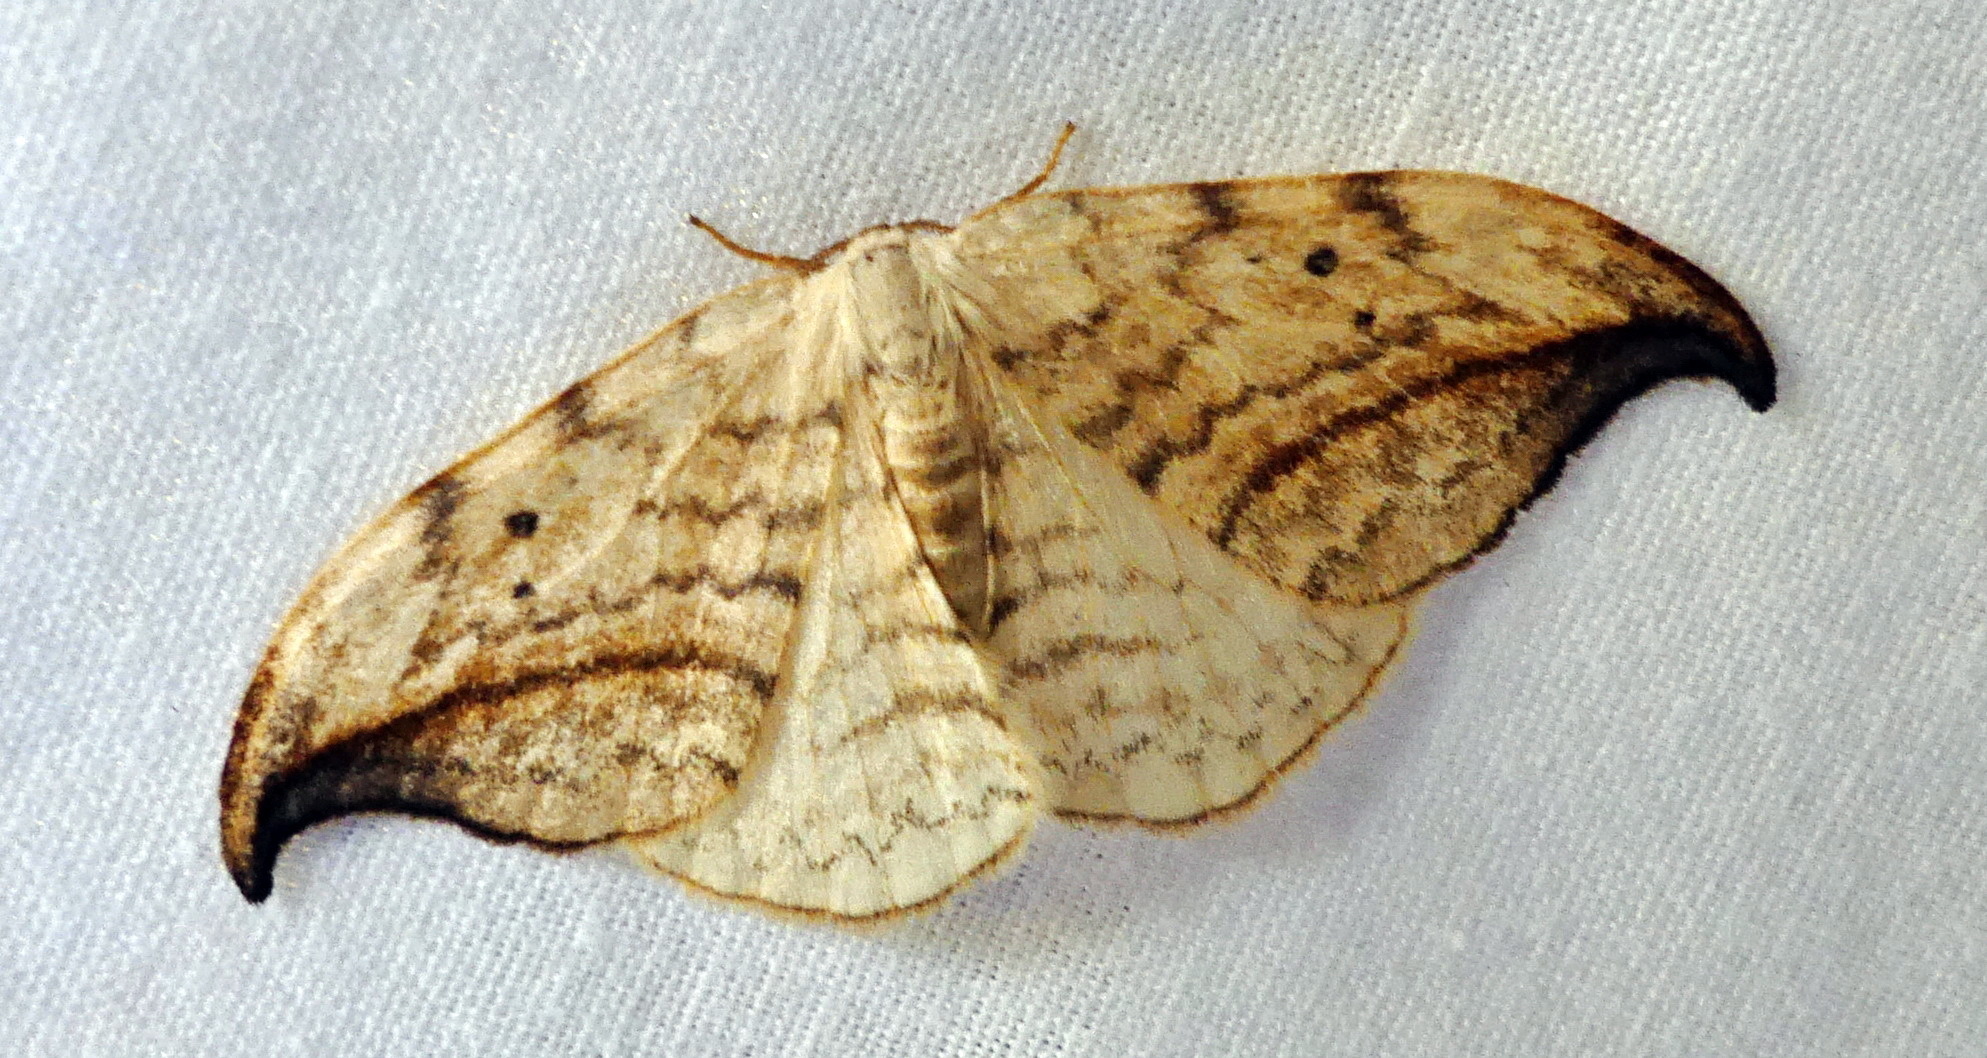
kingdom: Animalia
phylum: Arthropoda
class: Insecta
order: Lepidoptera
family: Drepanidae
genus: Drepana
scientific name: Drepana arcuata
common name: Arched hooktip moth
